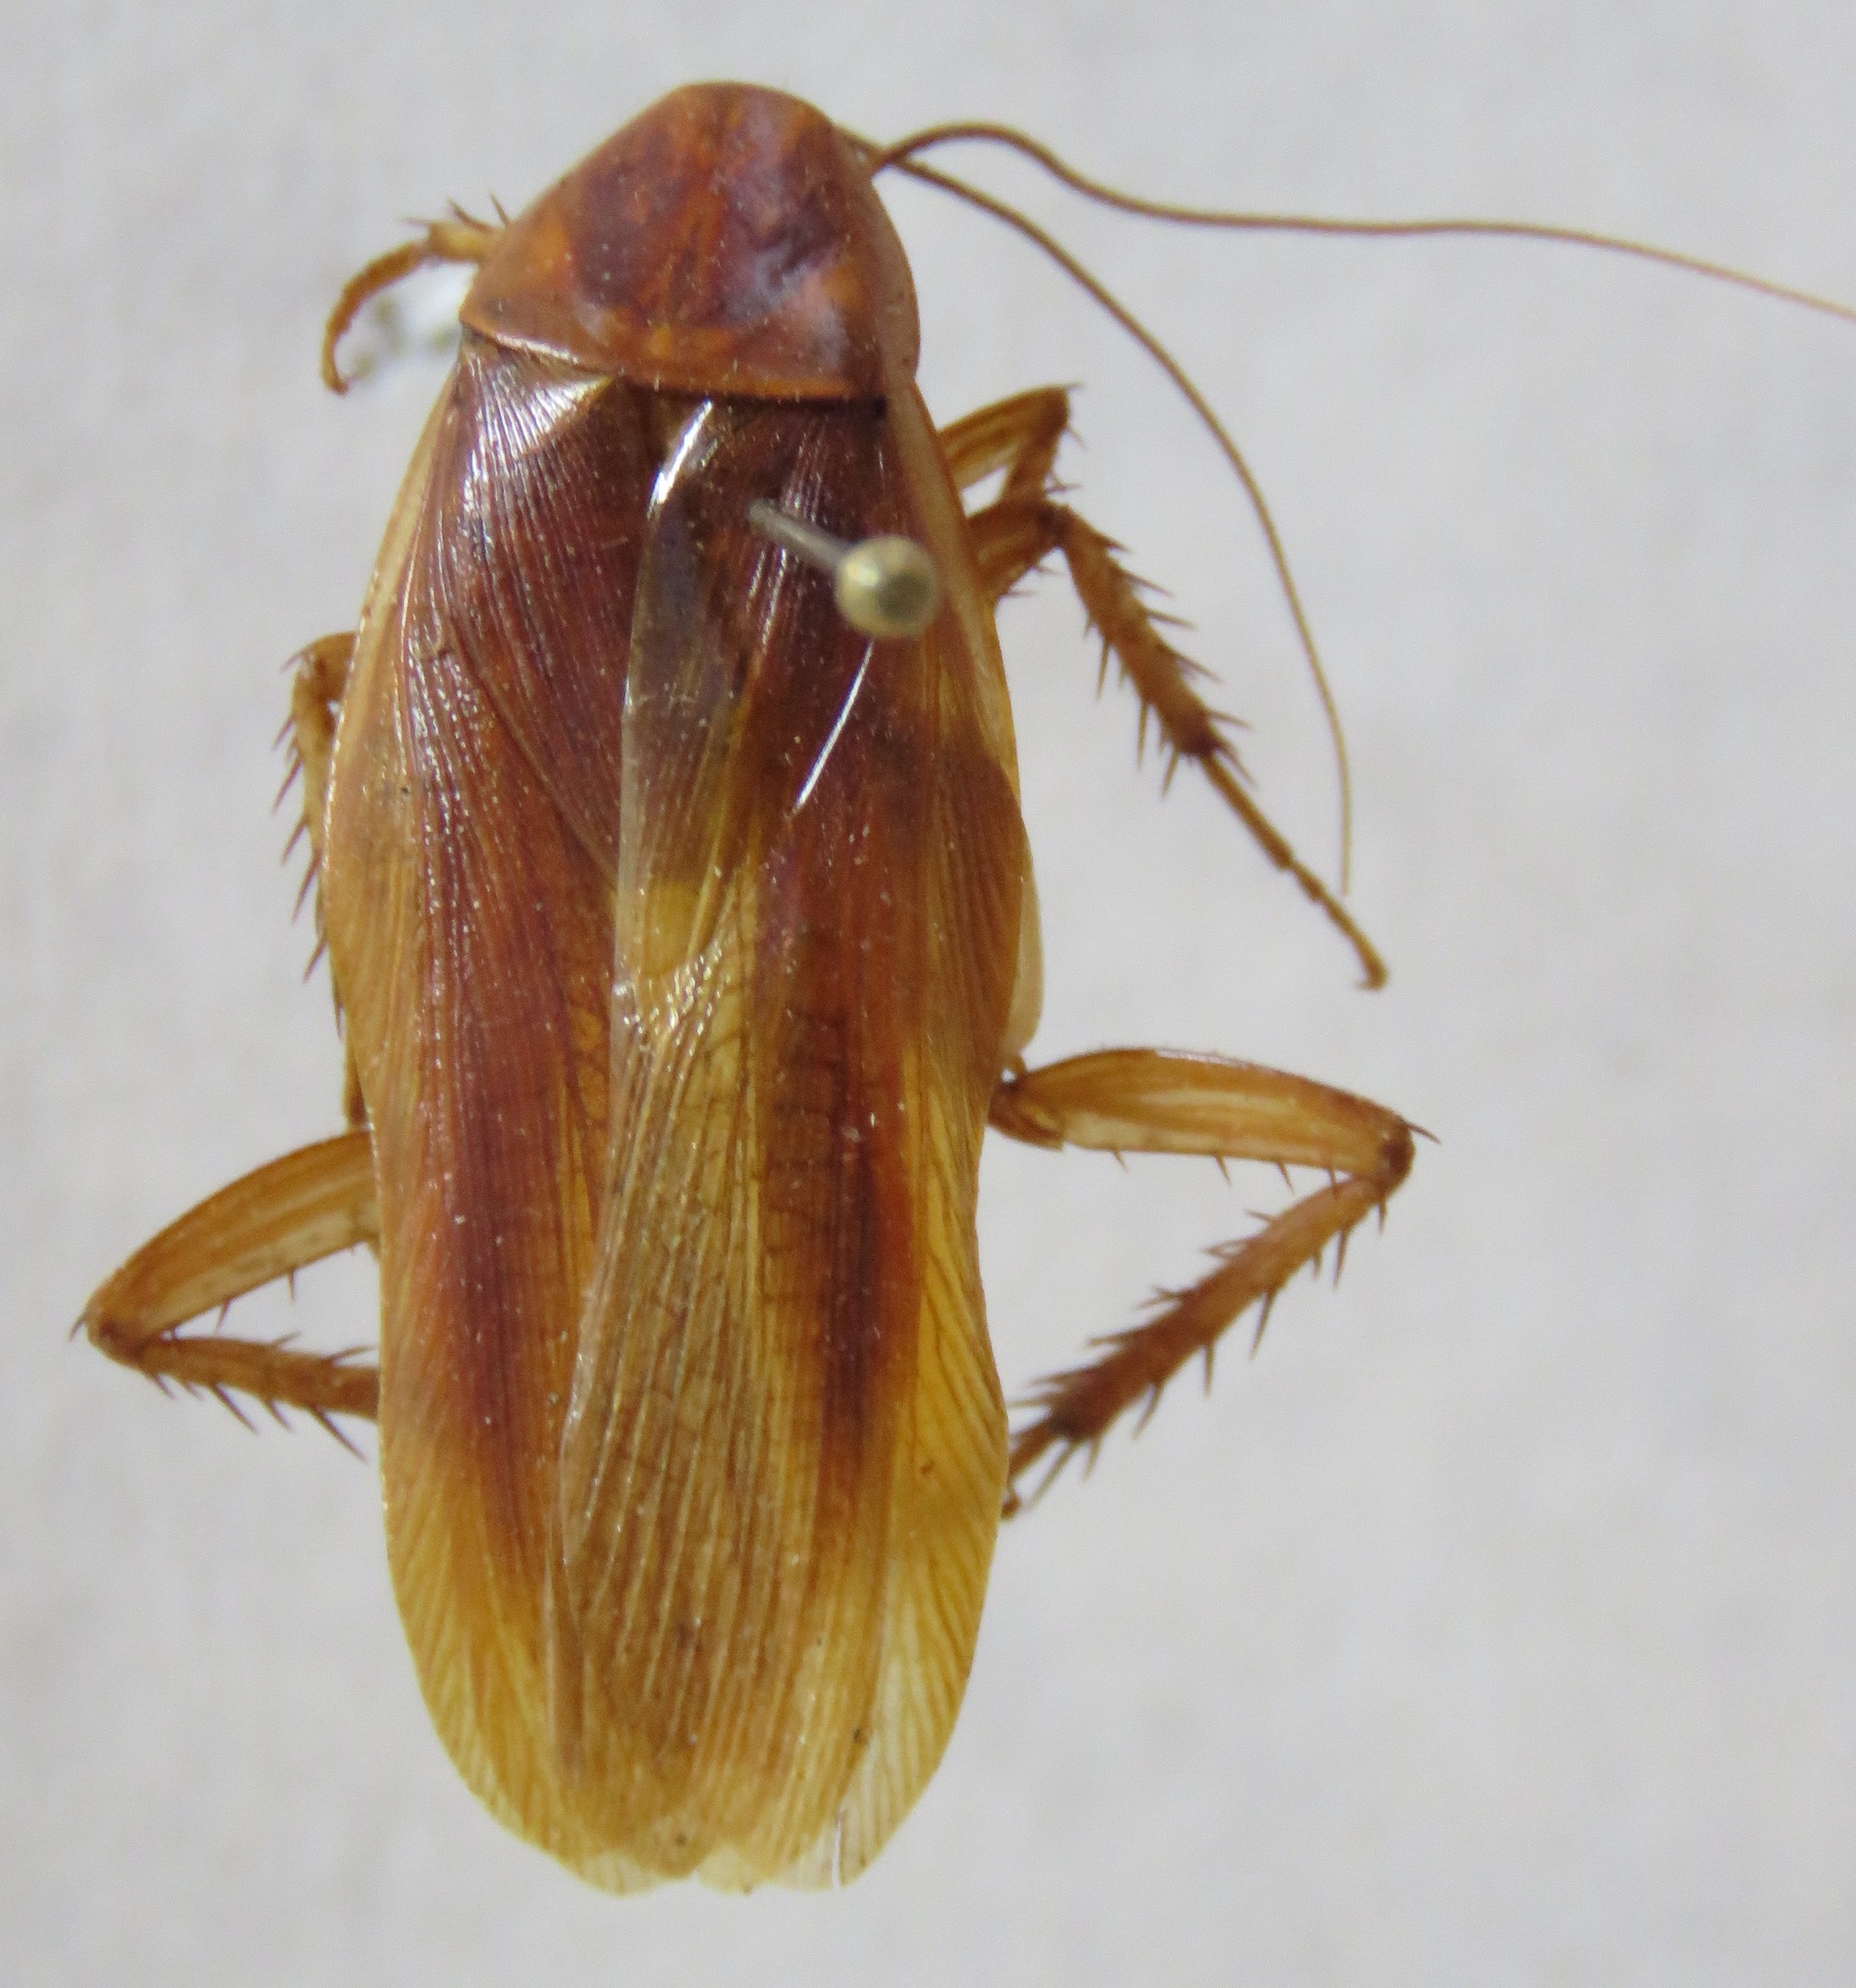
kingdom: Animalia
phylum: Arthropoda
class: Insecta
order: Blattodea
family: Ectobiidae
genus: Ischnoptera
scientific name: Ischnoptera rufa
